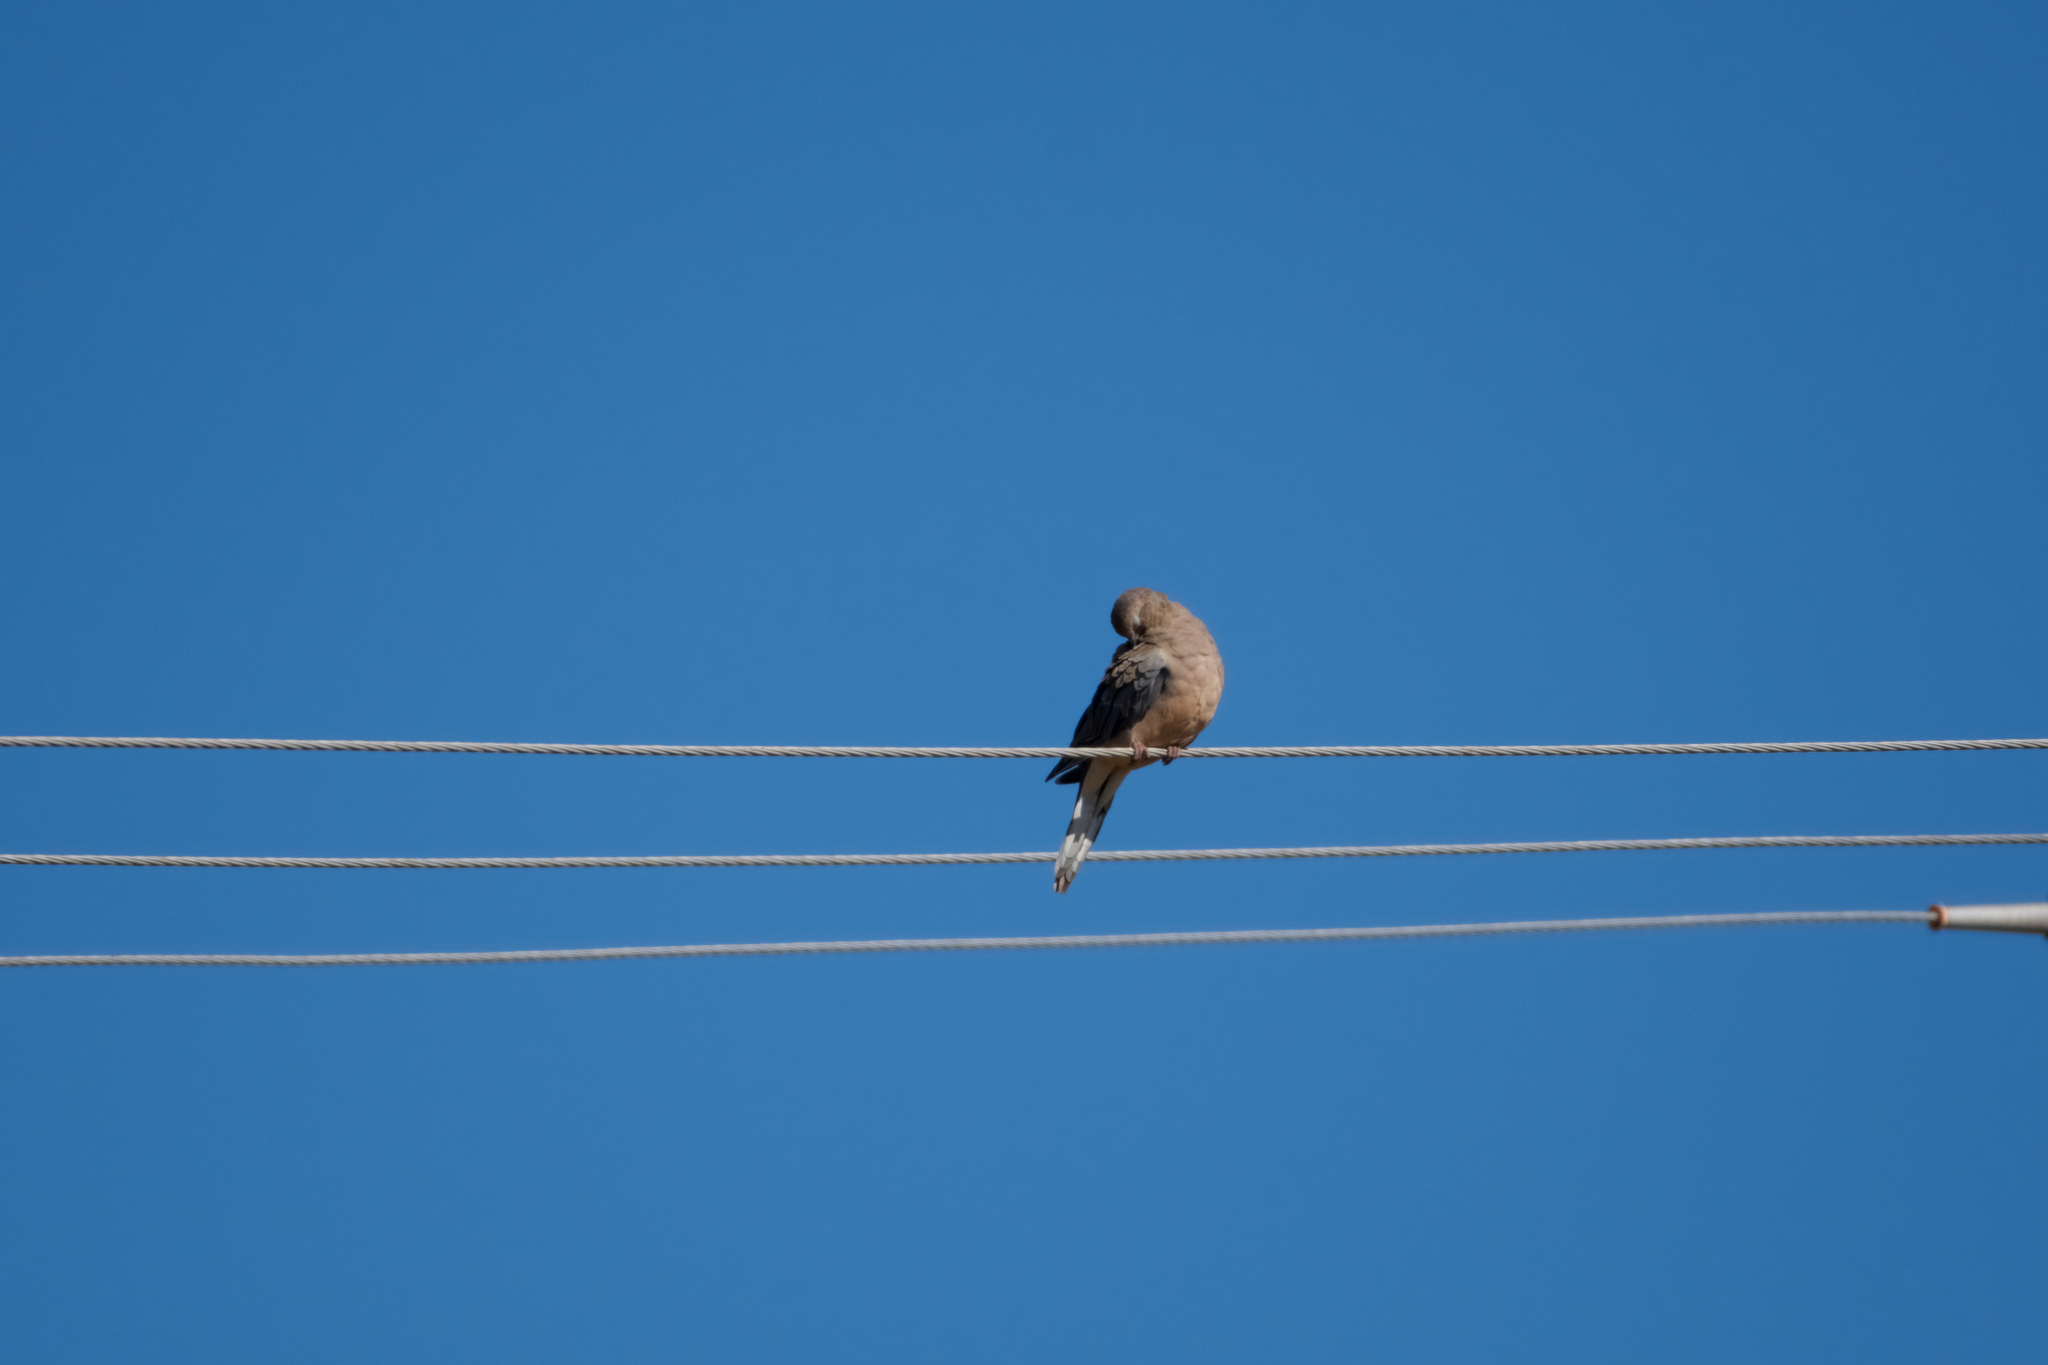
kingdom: Animalia
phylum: Chordata
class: Aves
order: Columbiformes
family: Columbidae
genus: Zenaida
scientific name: Zenaida macroura
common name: Mourning dove
